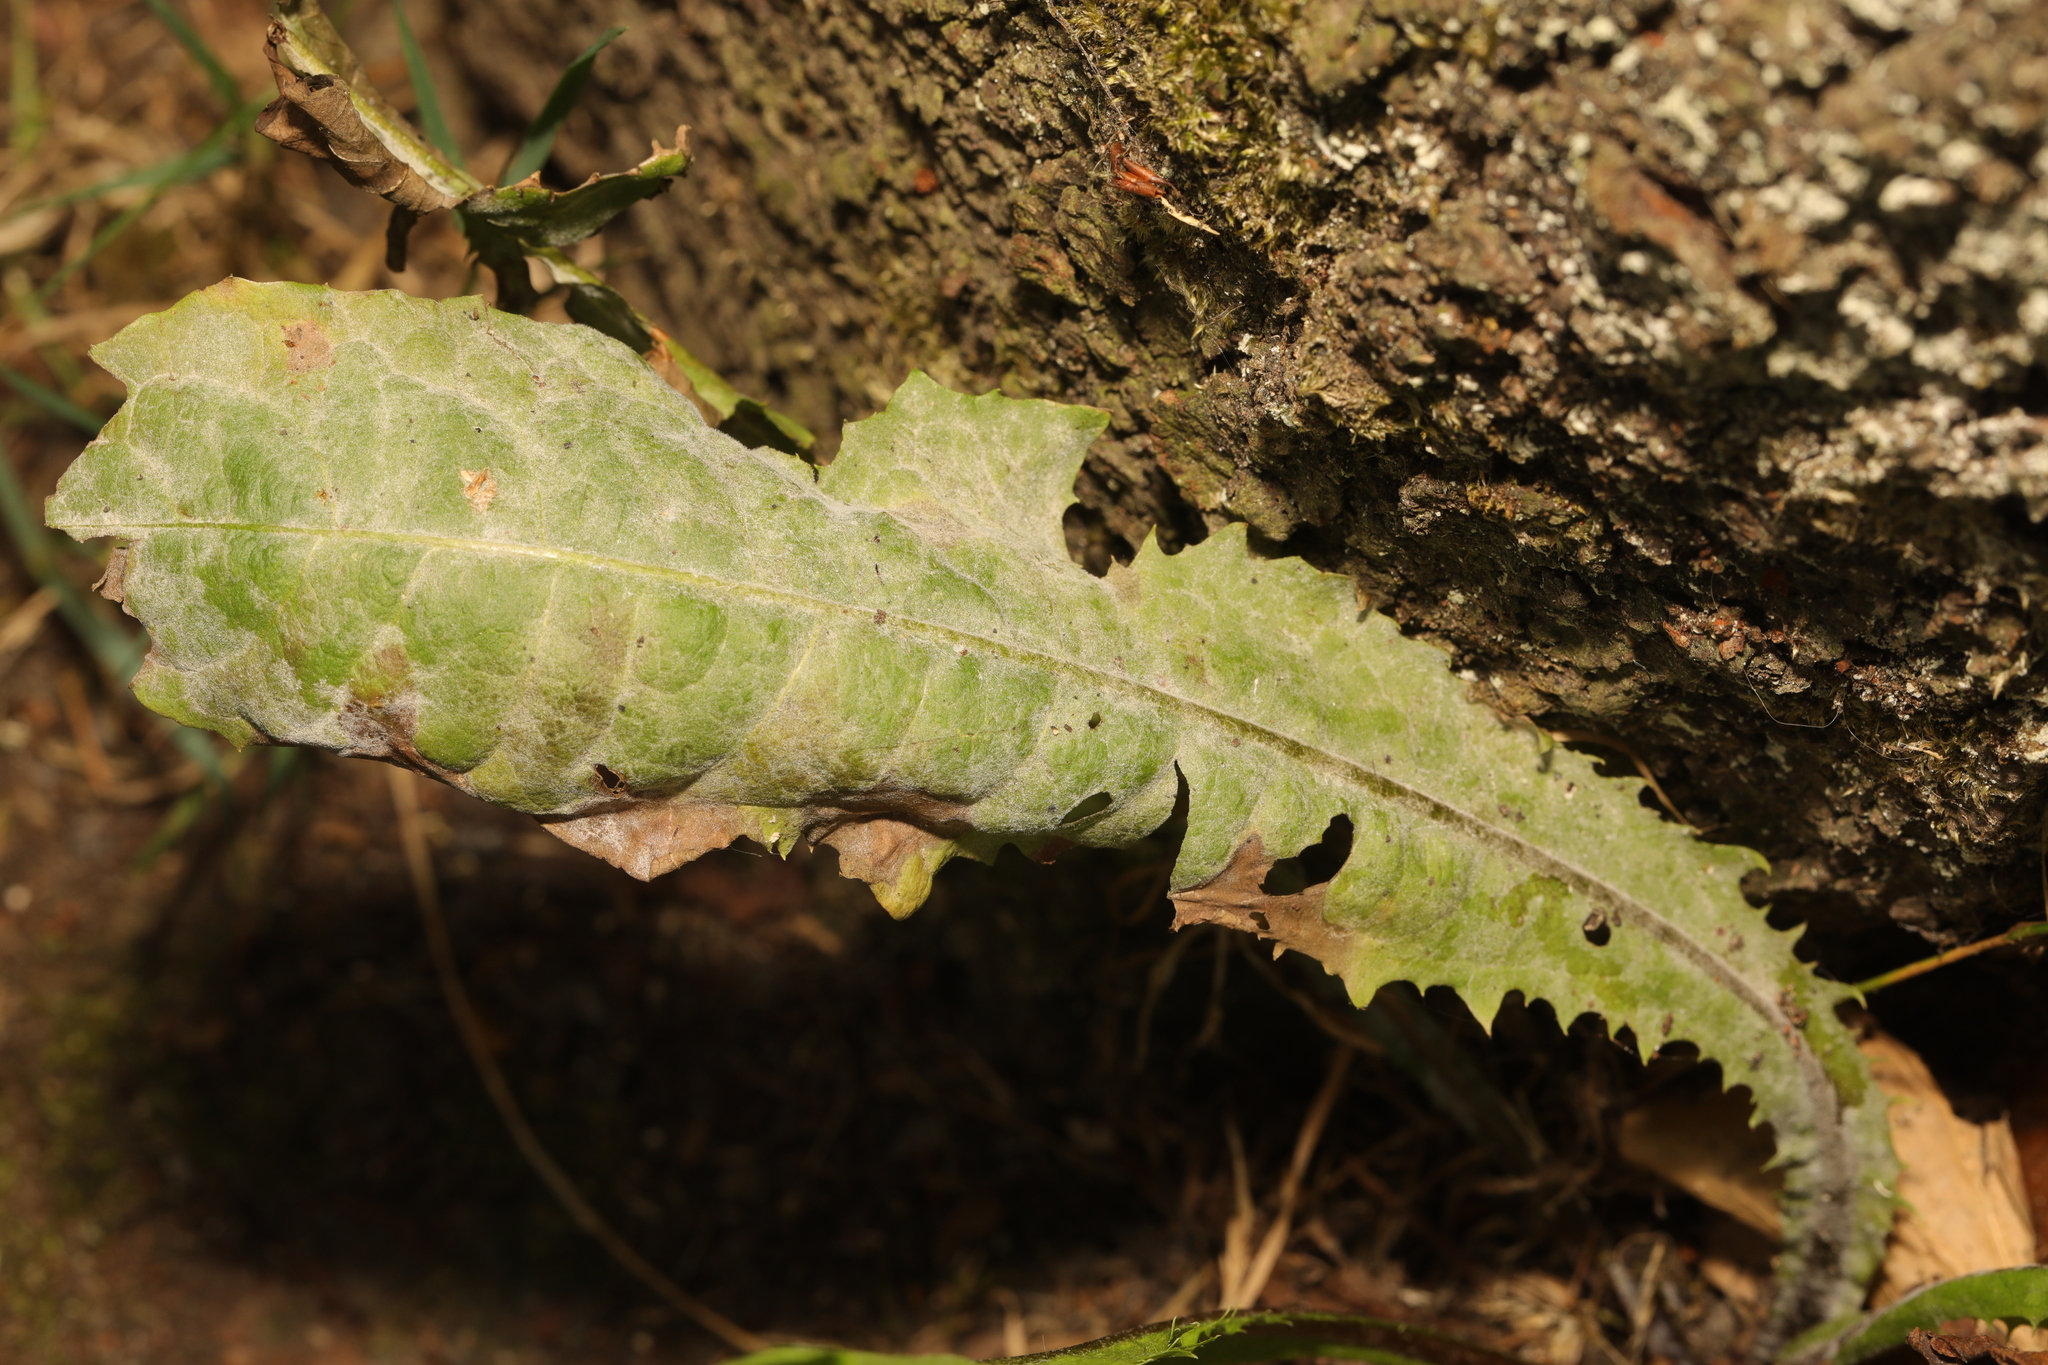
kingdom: Plantae
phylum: Tracheophyta
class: Magnoliopsida
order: Asterales
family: Asteraceae
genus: Taraxacum
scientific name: Taraxacum officinale
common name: Common dandelion
